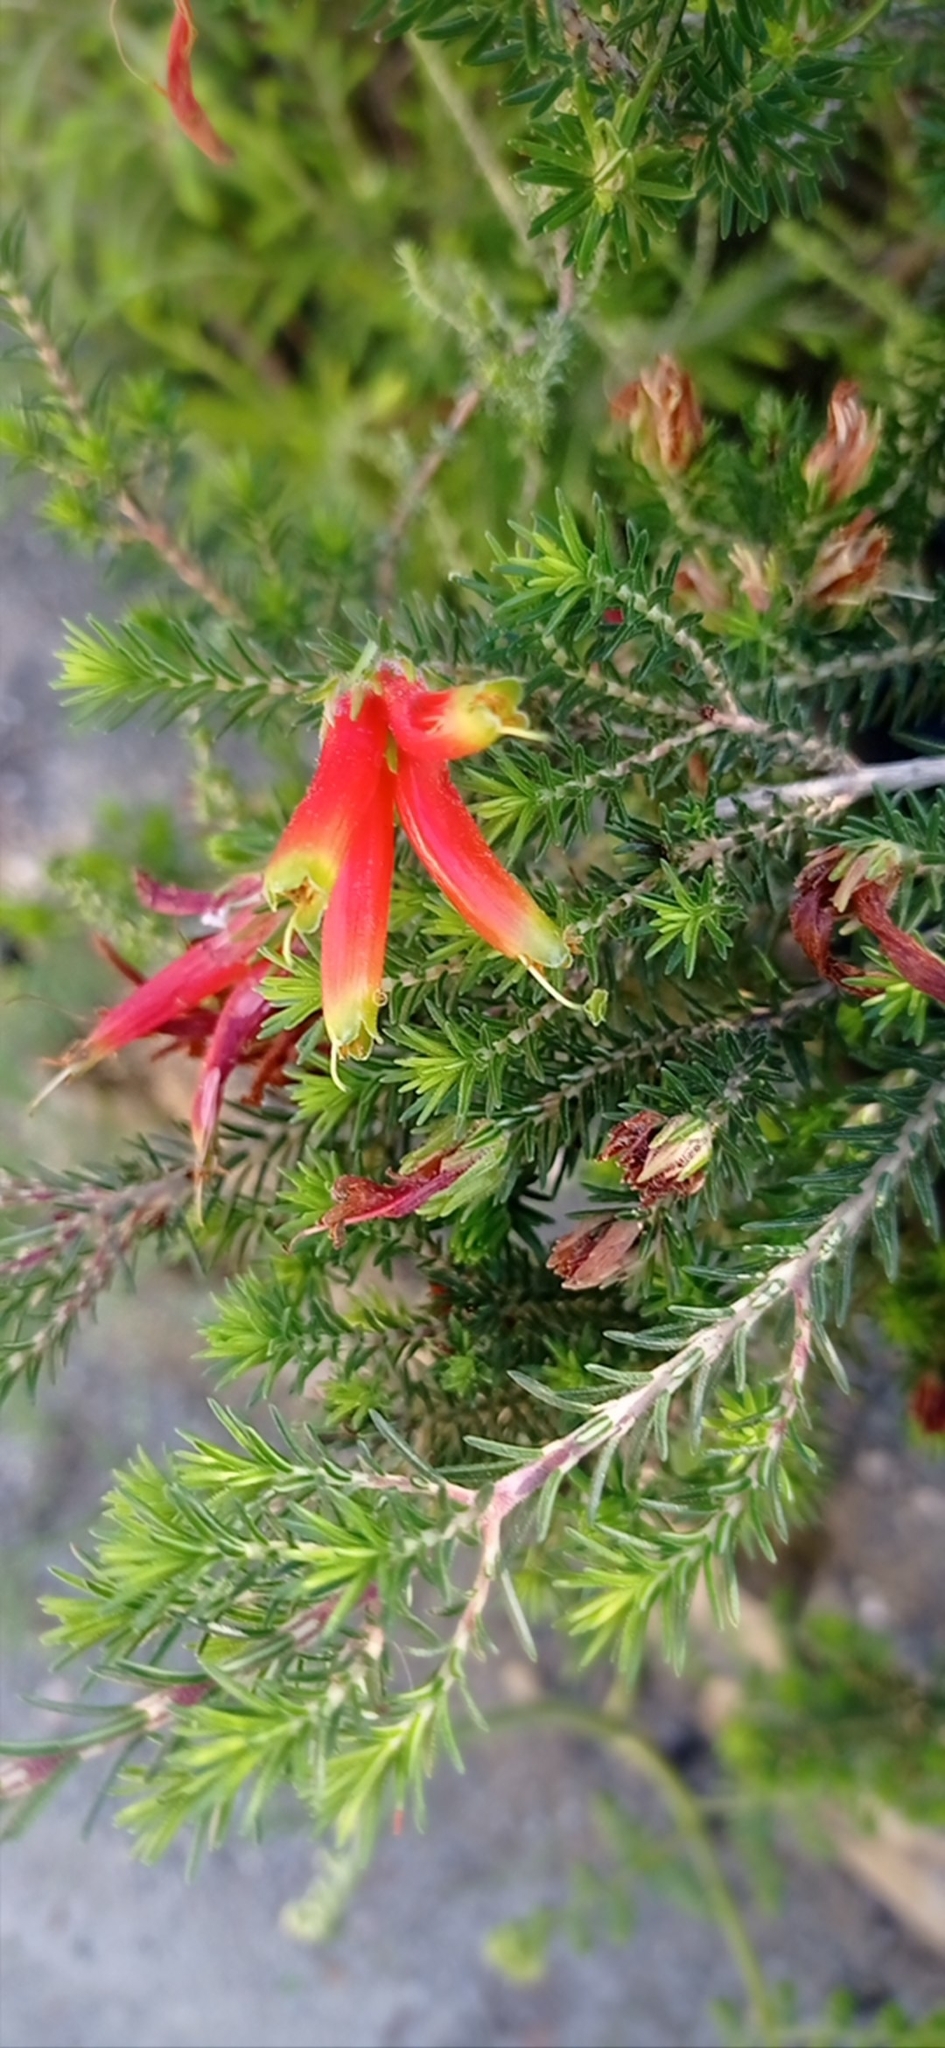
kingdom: Plantae
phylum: Tracheophyta
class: Magnoliopsida
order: Ericales
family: Ericaceae
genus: Erica
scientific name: Erica unicolor
